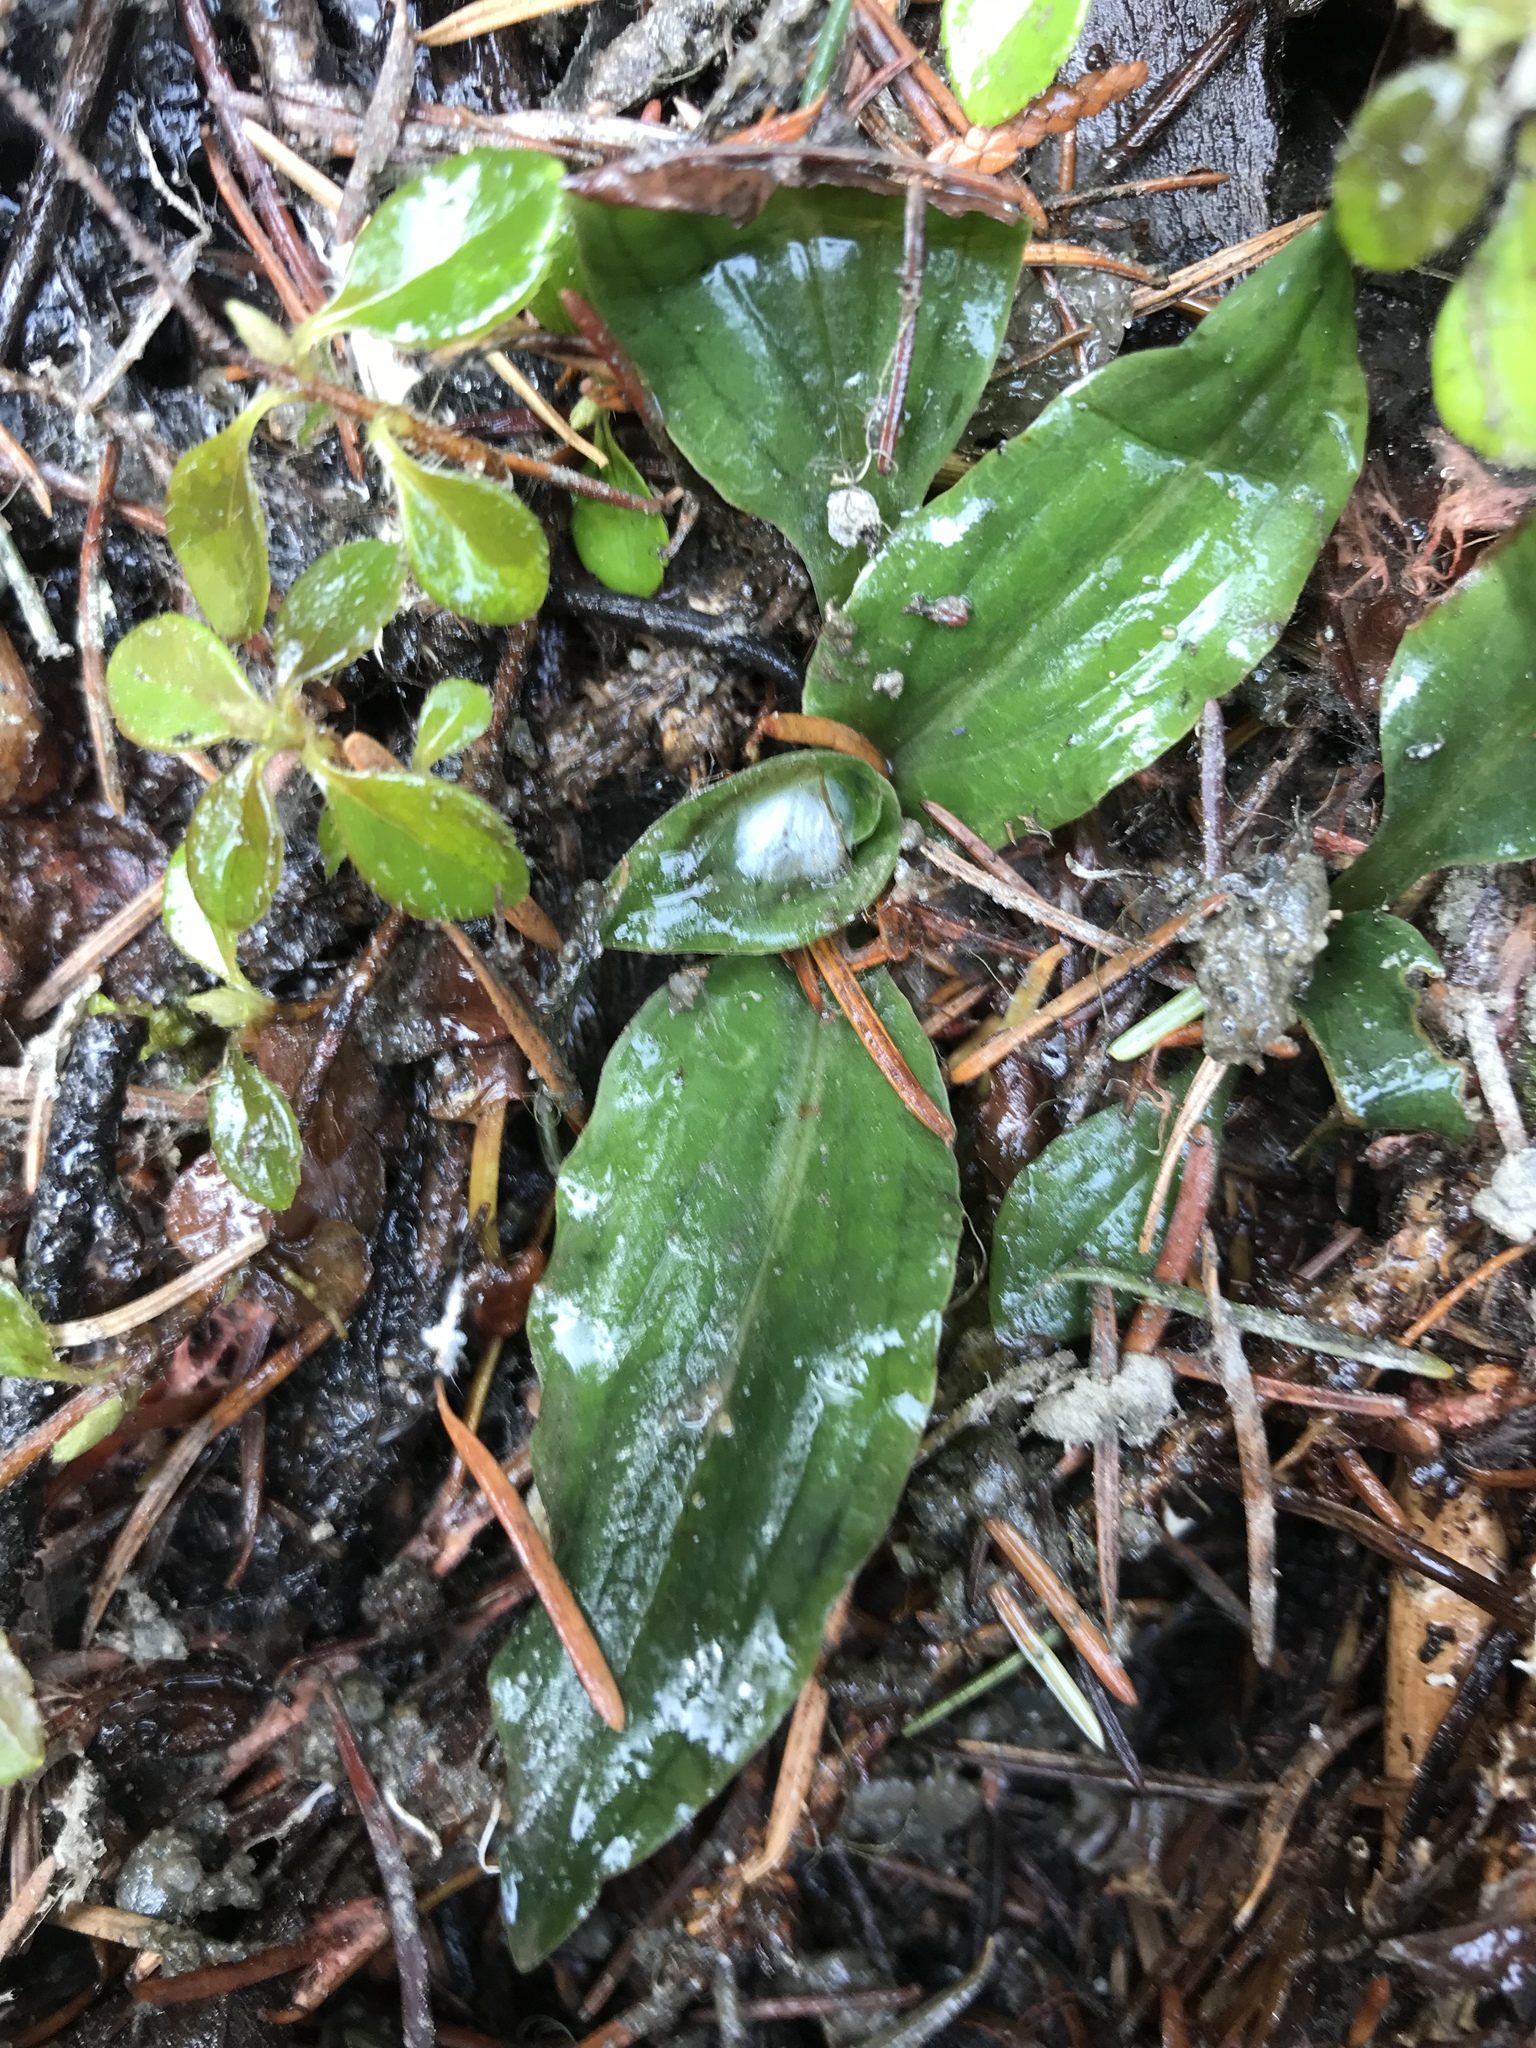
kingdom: Plantae
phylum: Tracheophyta
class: Liliopsida
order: Asparagales
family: Orchidaceae
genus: Goodyera
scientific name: Goodyera oblongifolia
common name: Giant rattlesnake-plantain
